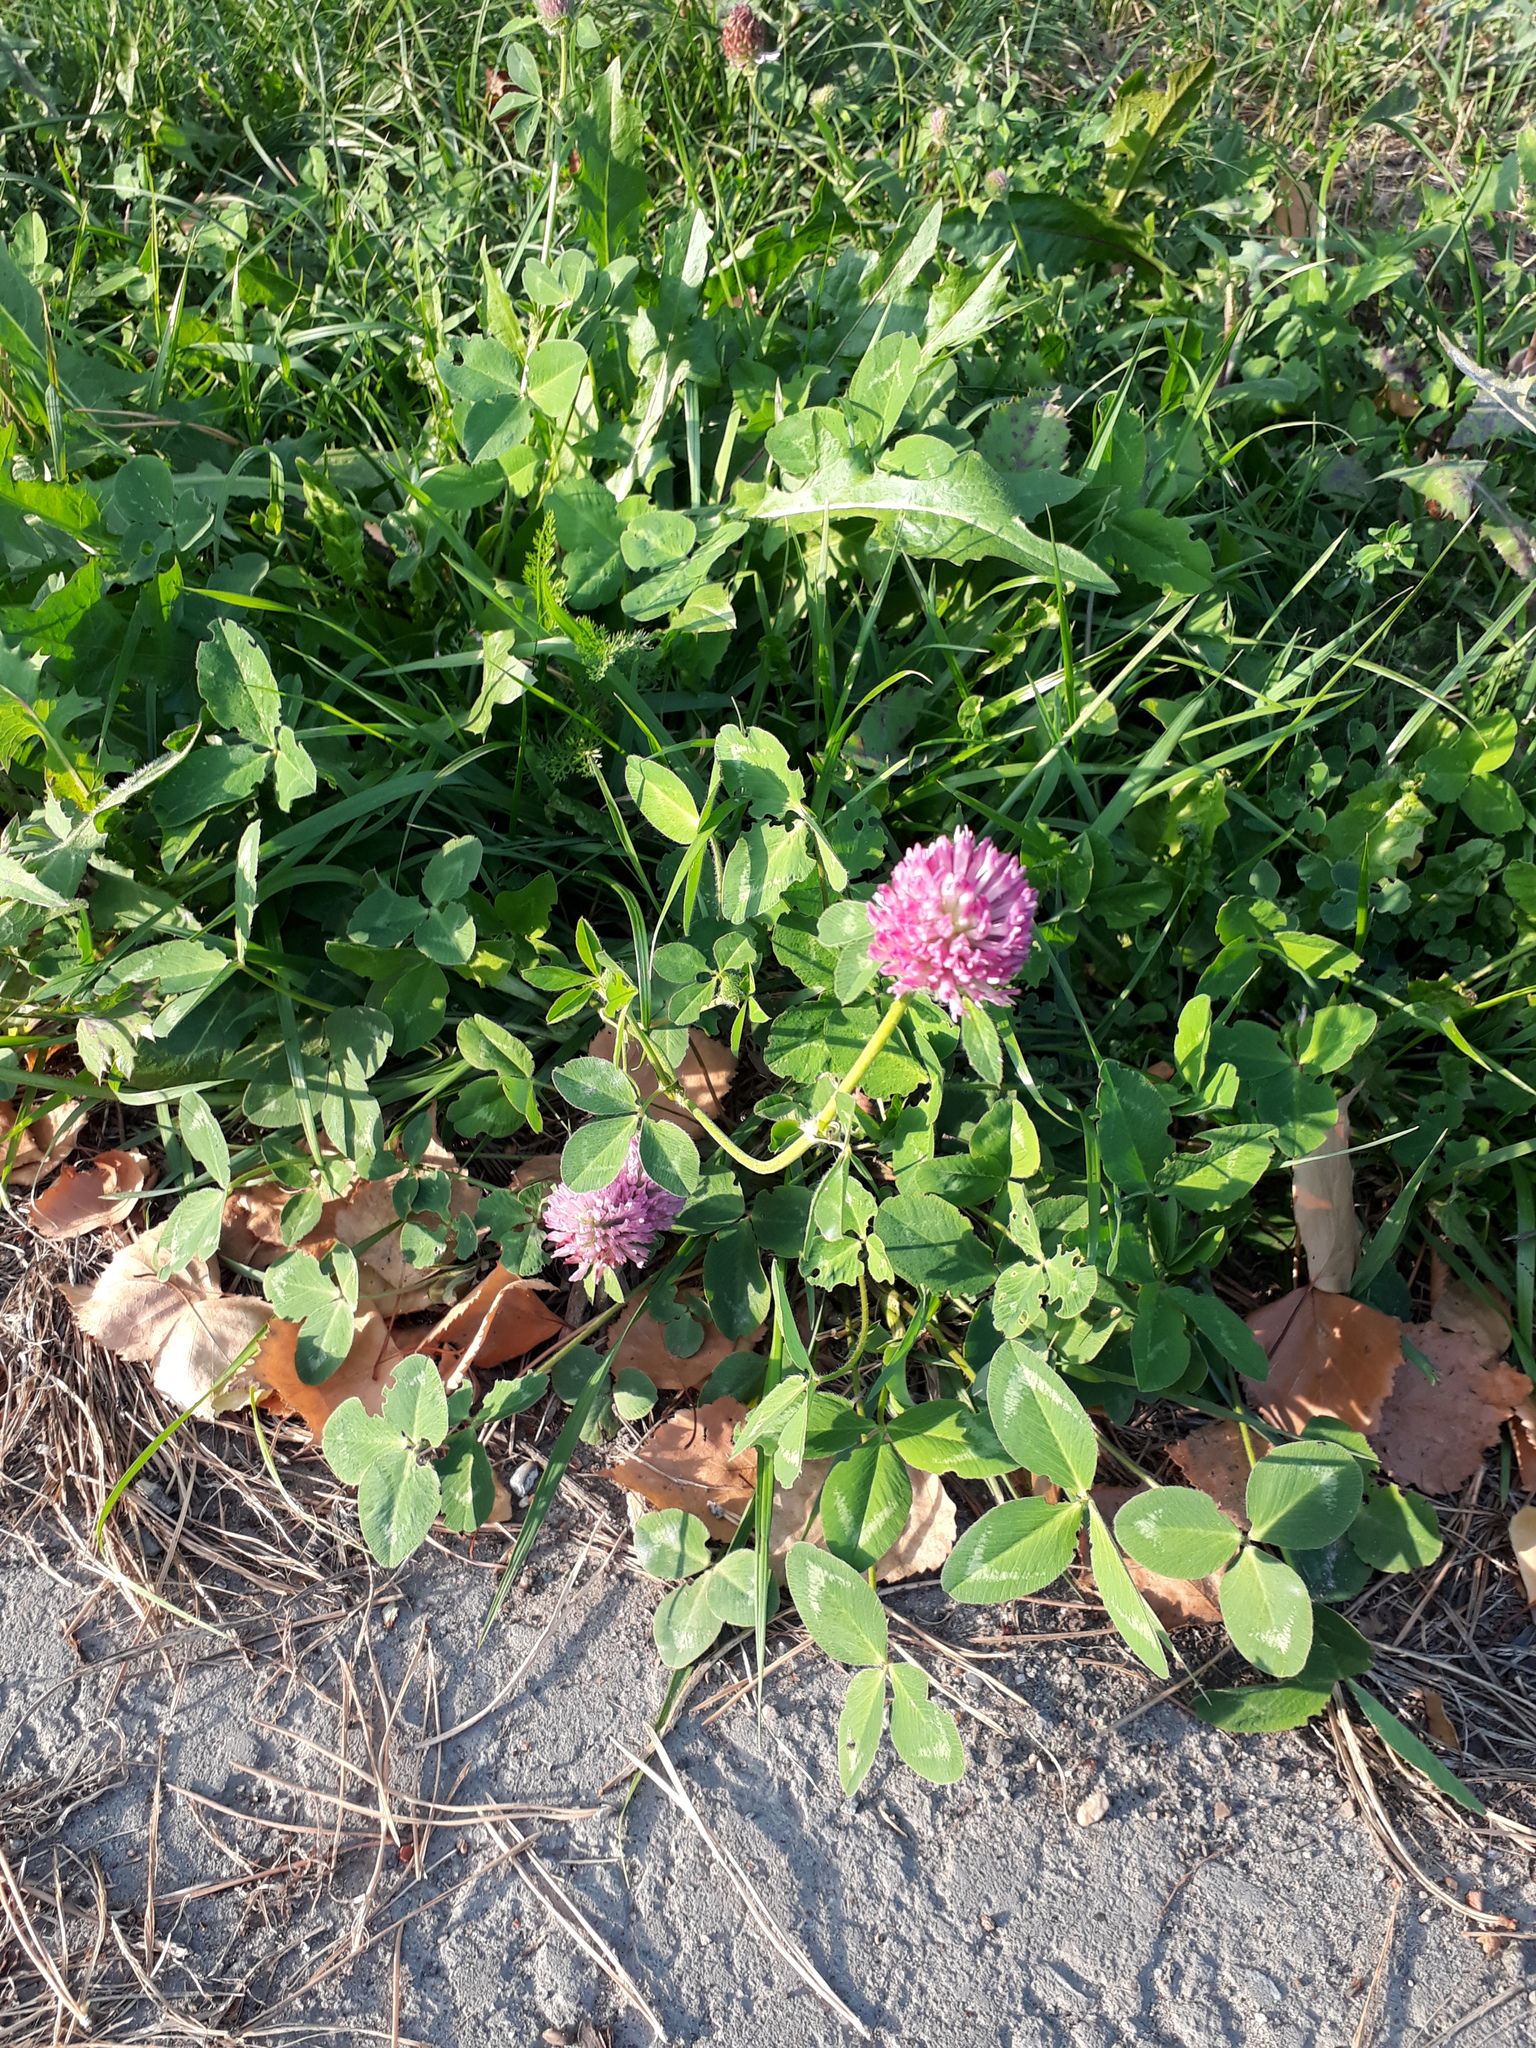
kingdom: Plantae
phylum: Tracheophyta
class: Magnoliopsida
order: Fabales
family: Fabaceae
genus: Trifolium
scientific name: Trifolium pratense
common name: Red clover
